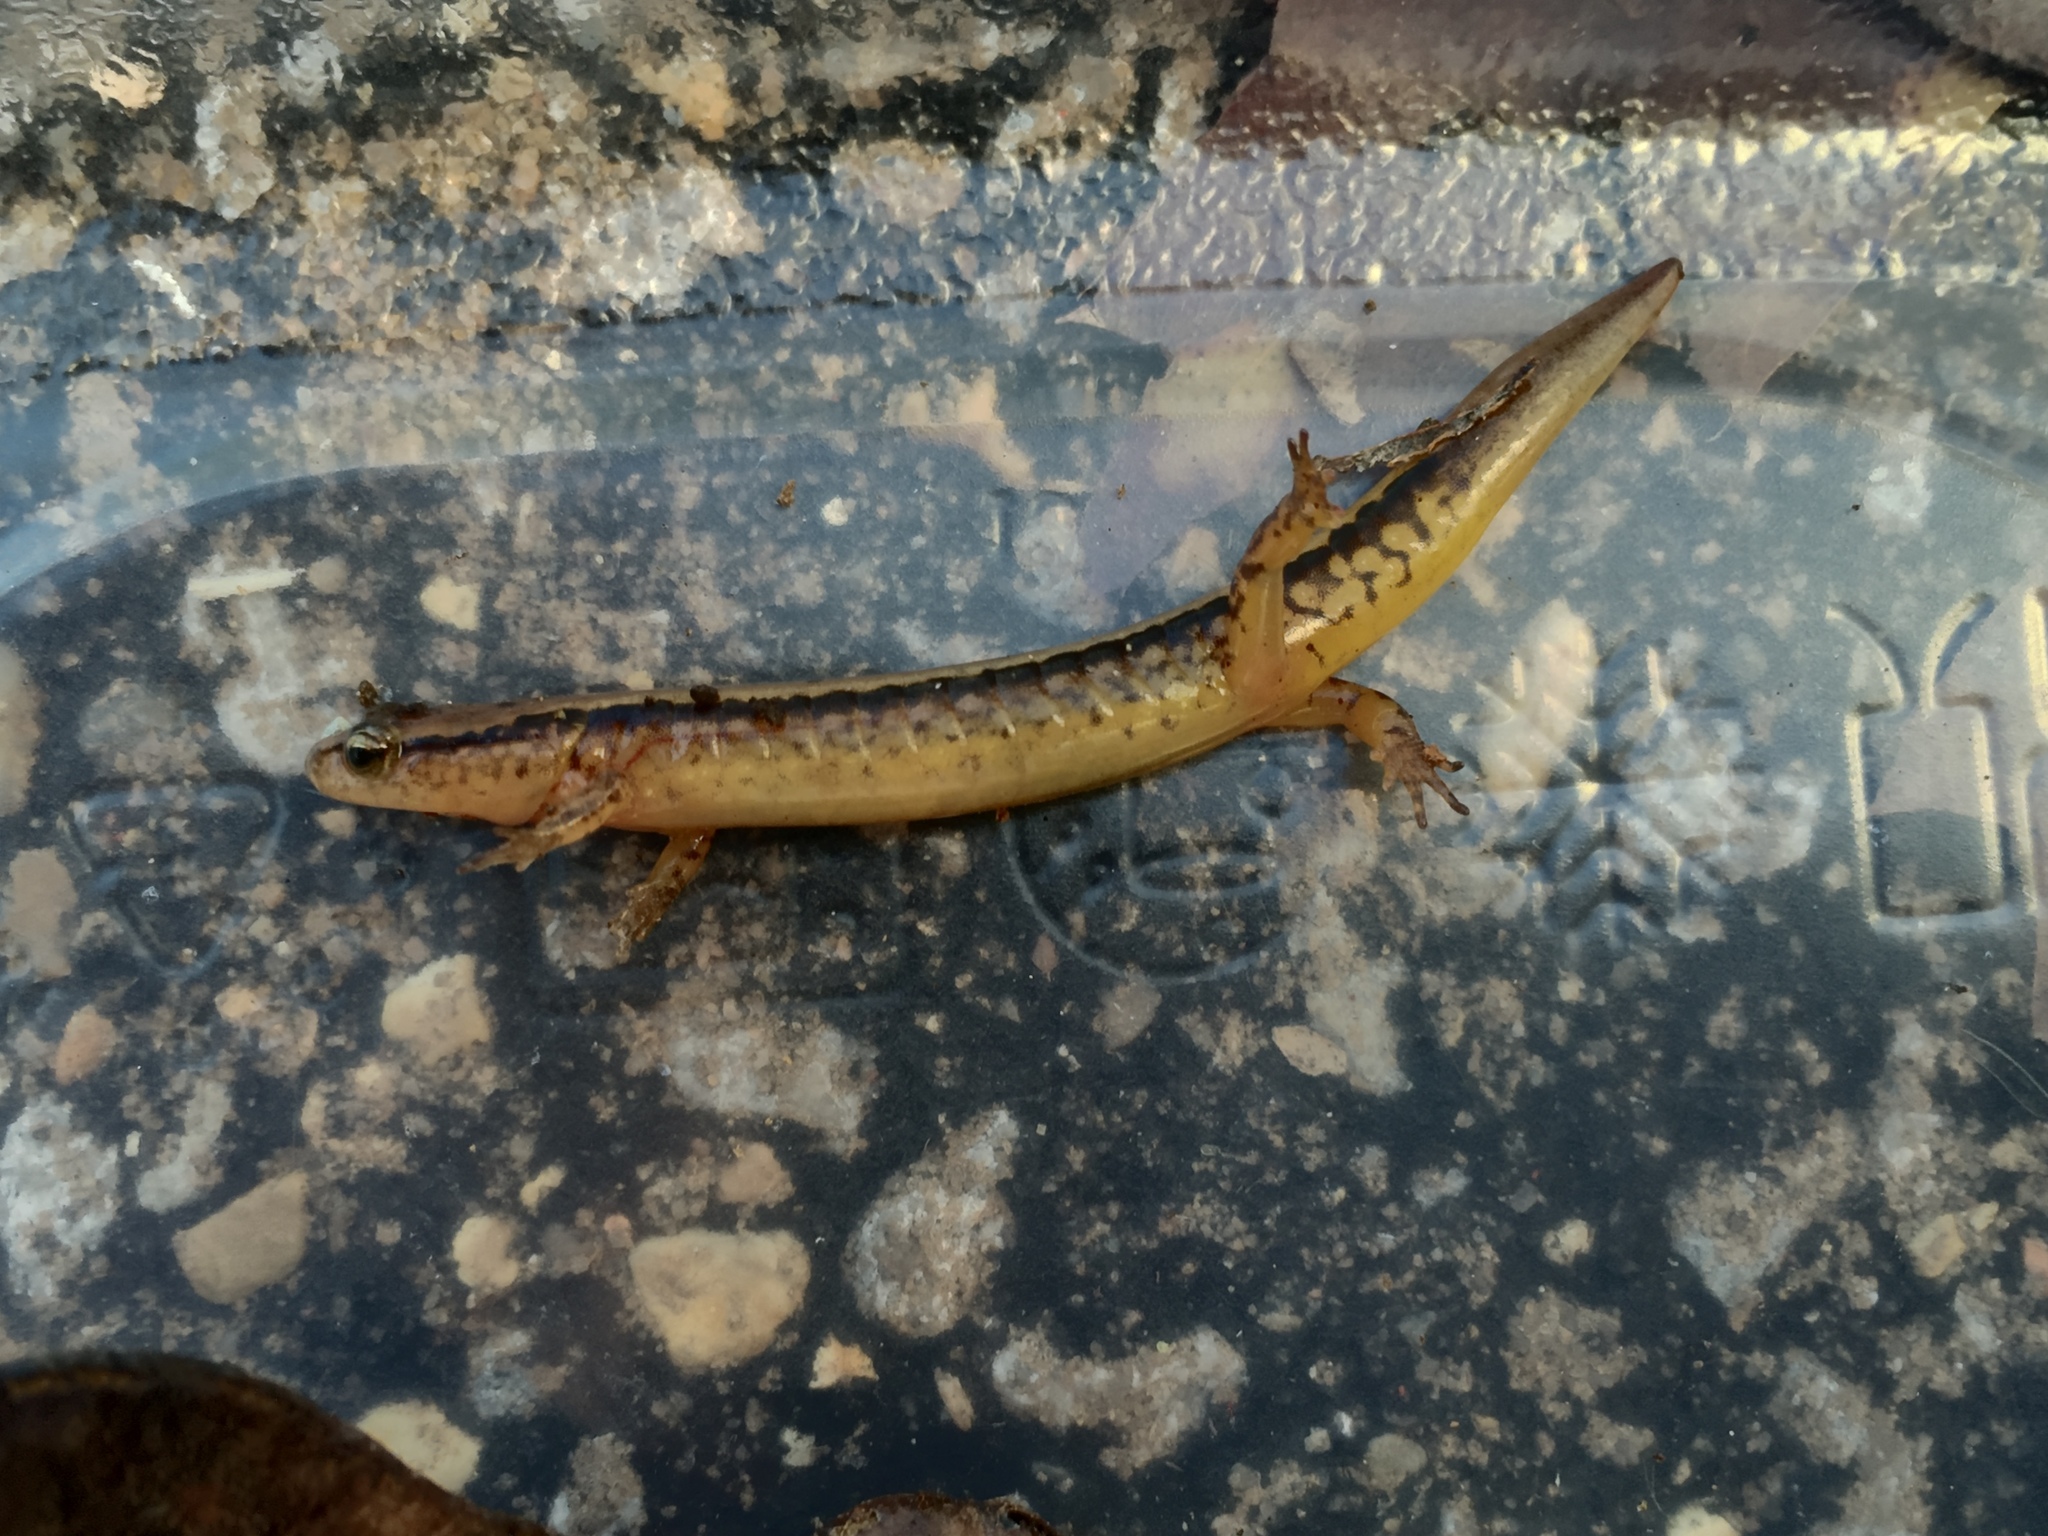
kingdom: Animalia
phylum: Chordata
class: Amphibia
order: Caudata
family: Plethodontidae
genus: Eurycea
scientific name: Eurycea cirrigera
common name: Southern two-lined salamander
